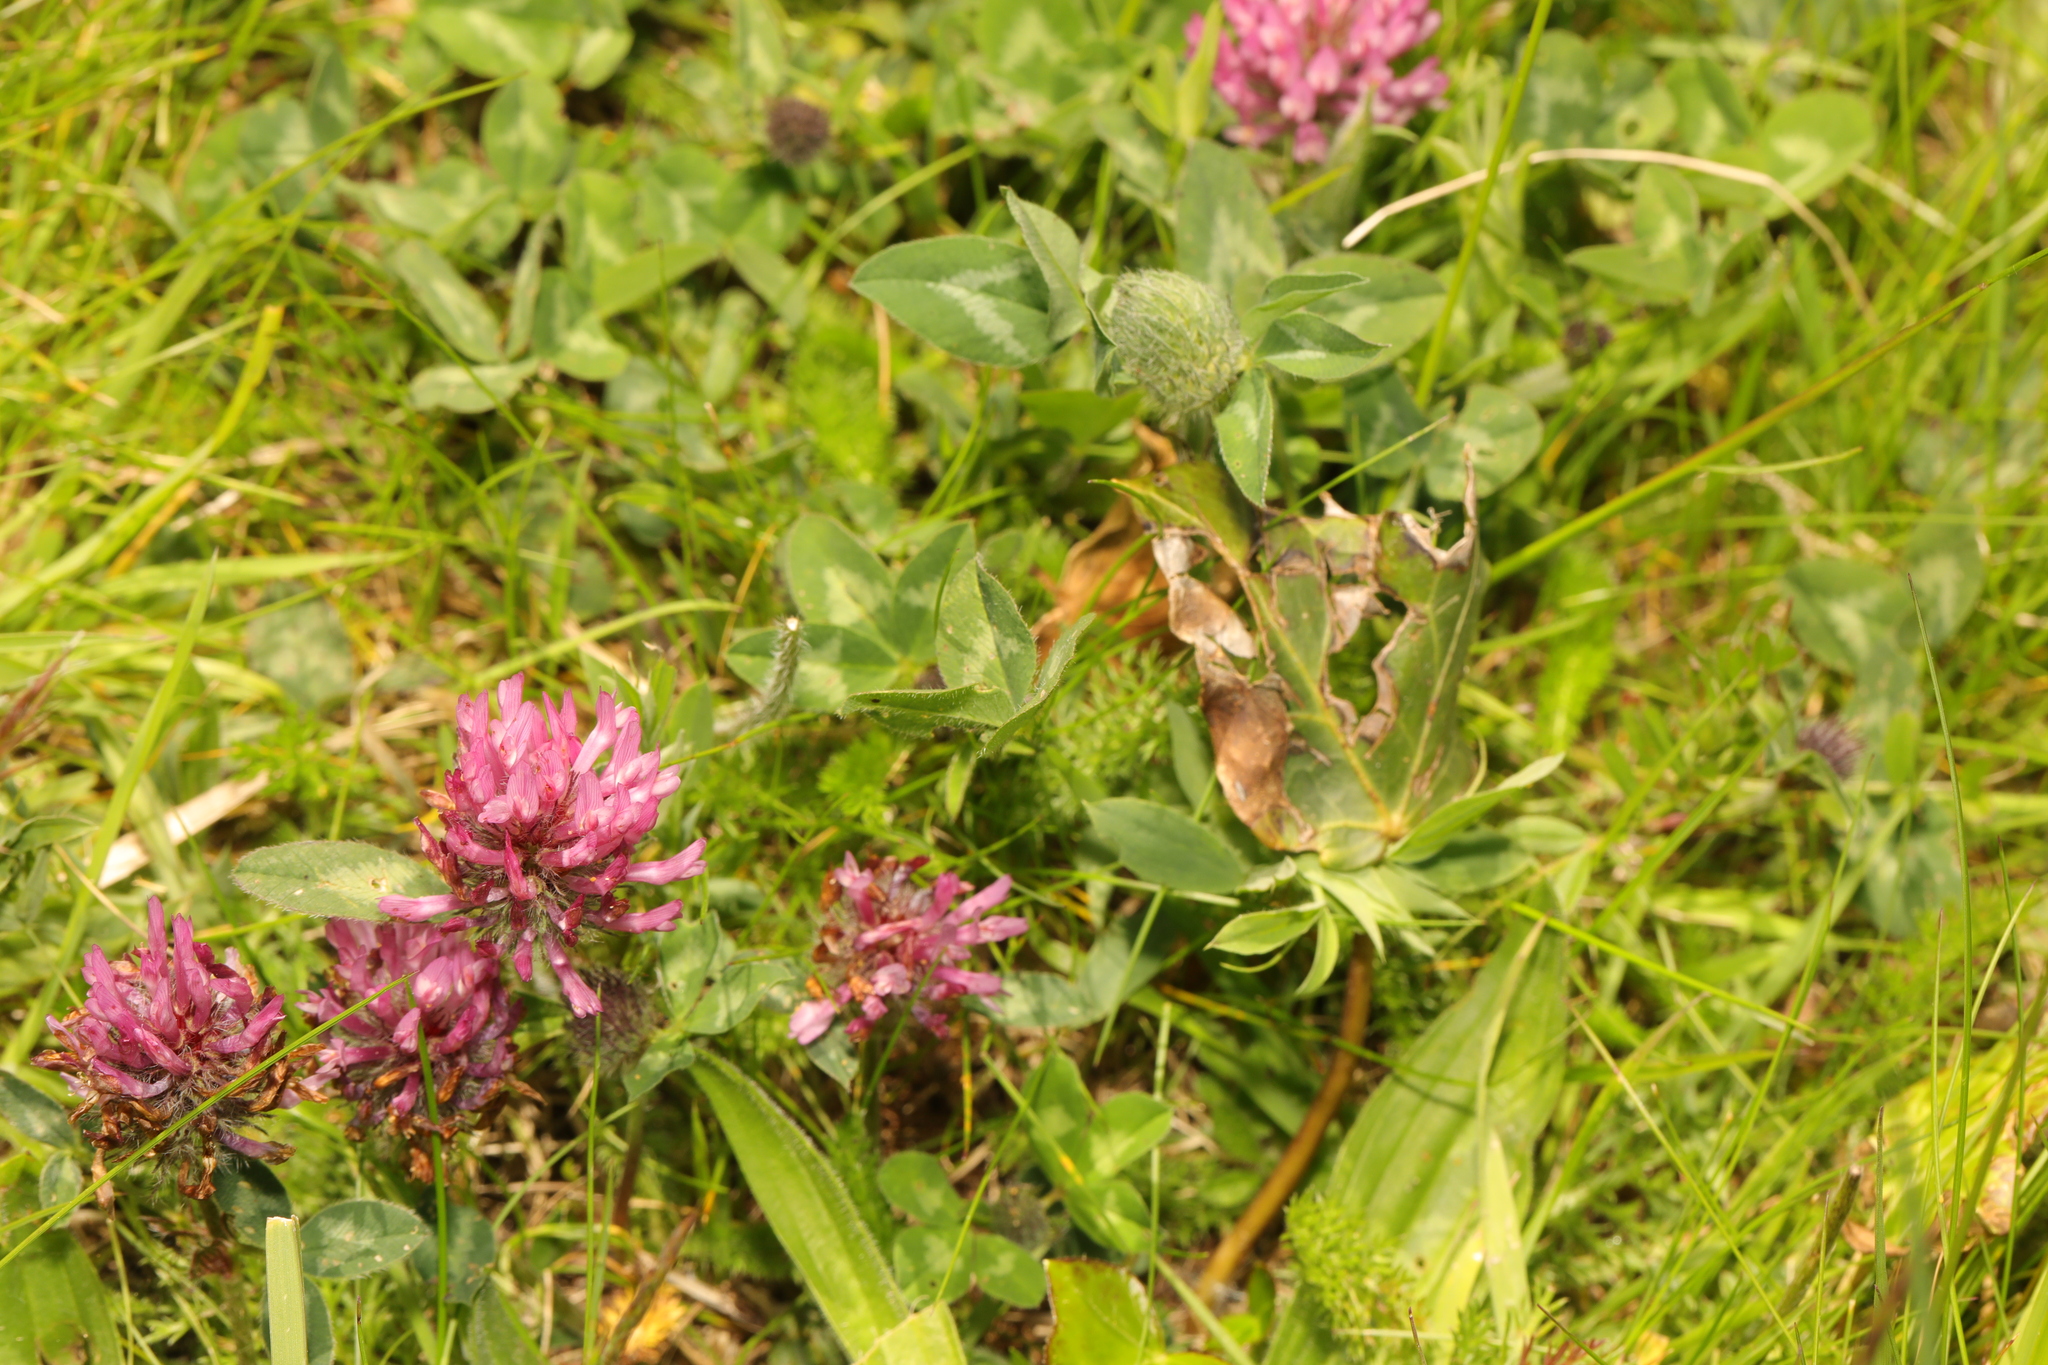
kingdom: Plantae
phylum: Tracheophyta
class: Magnoliopsida
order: Fabales
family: Fabaceae
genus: Trifolium
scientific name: Trifolium pratense
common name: Red clover
